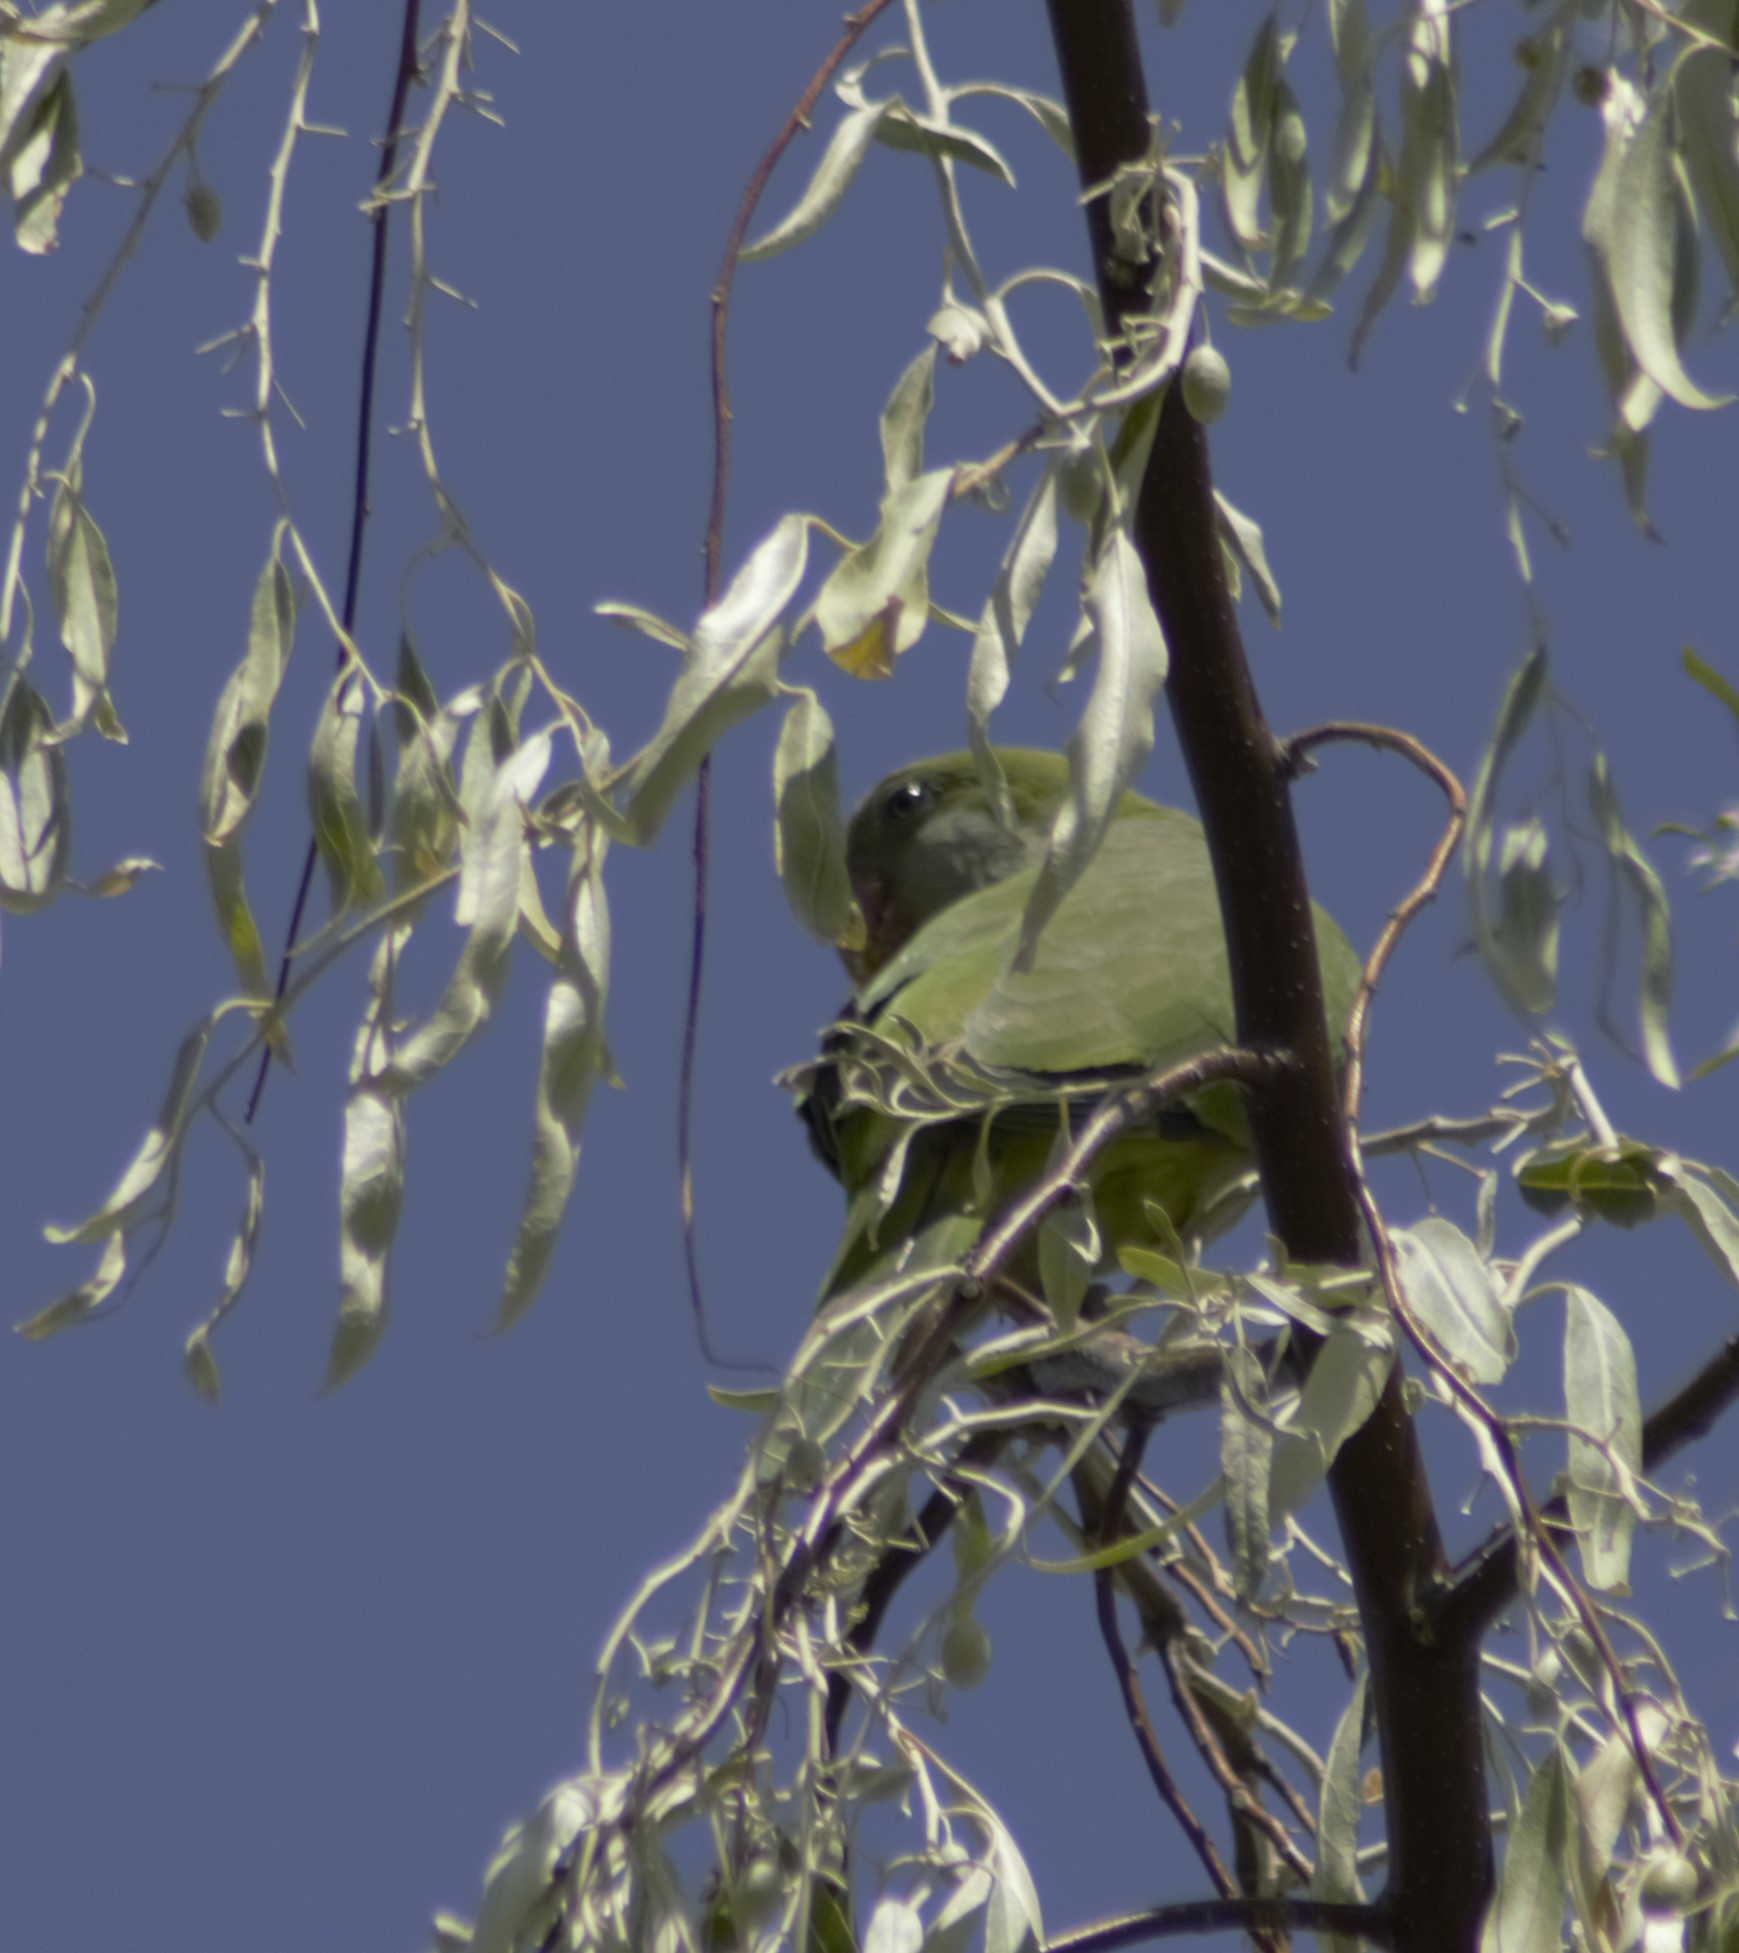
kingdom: Animalia
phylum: Chordata
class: Aves
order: Psittaciformes
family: Psittacidae
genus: Myiopsitta
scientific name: Myiopsitta monachus
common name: Monk parakeet
